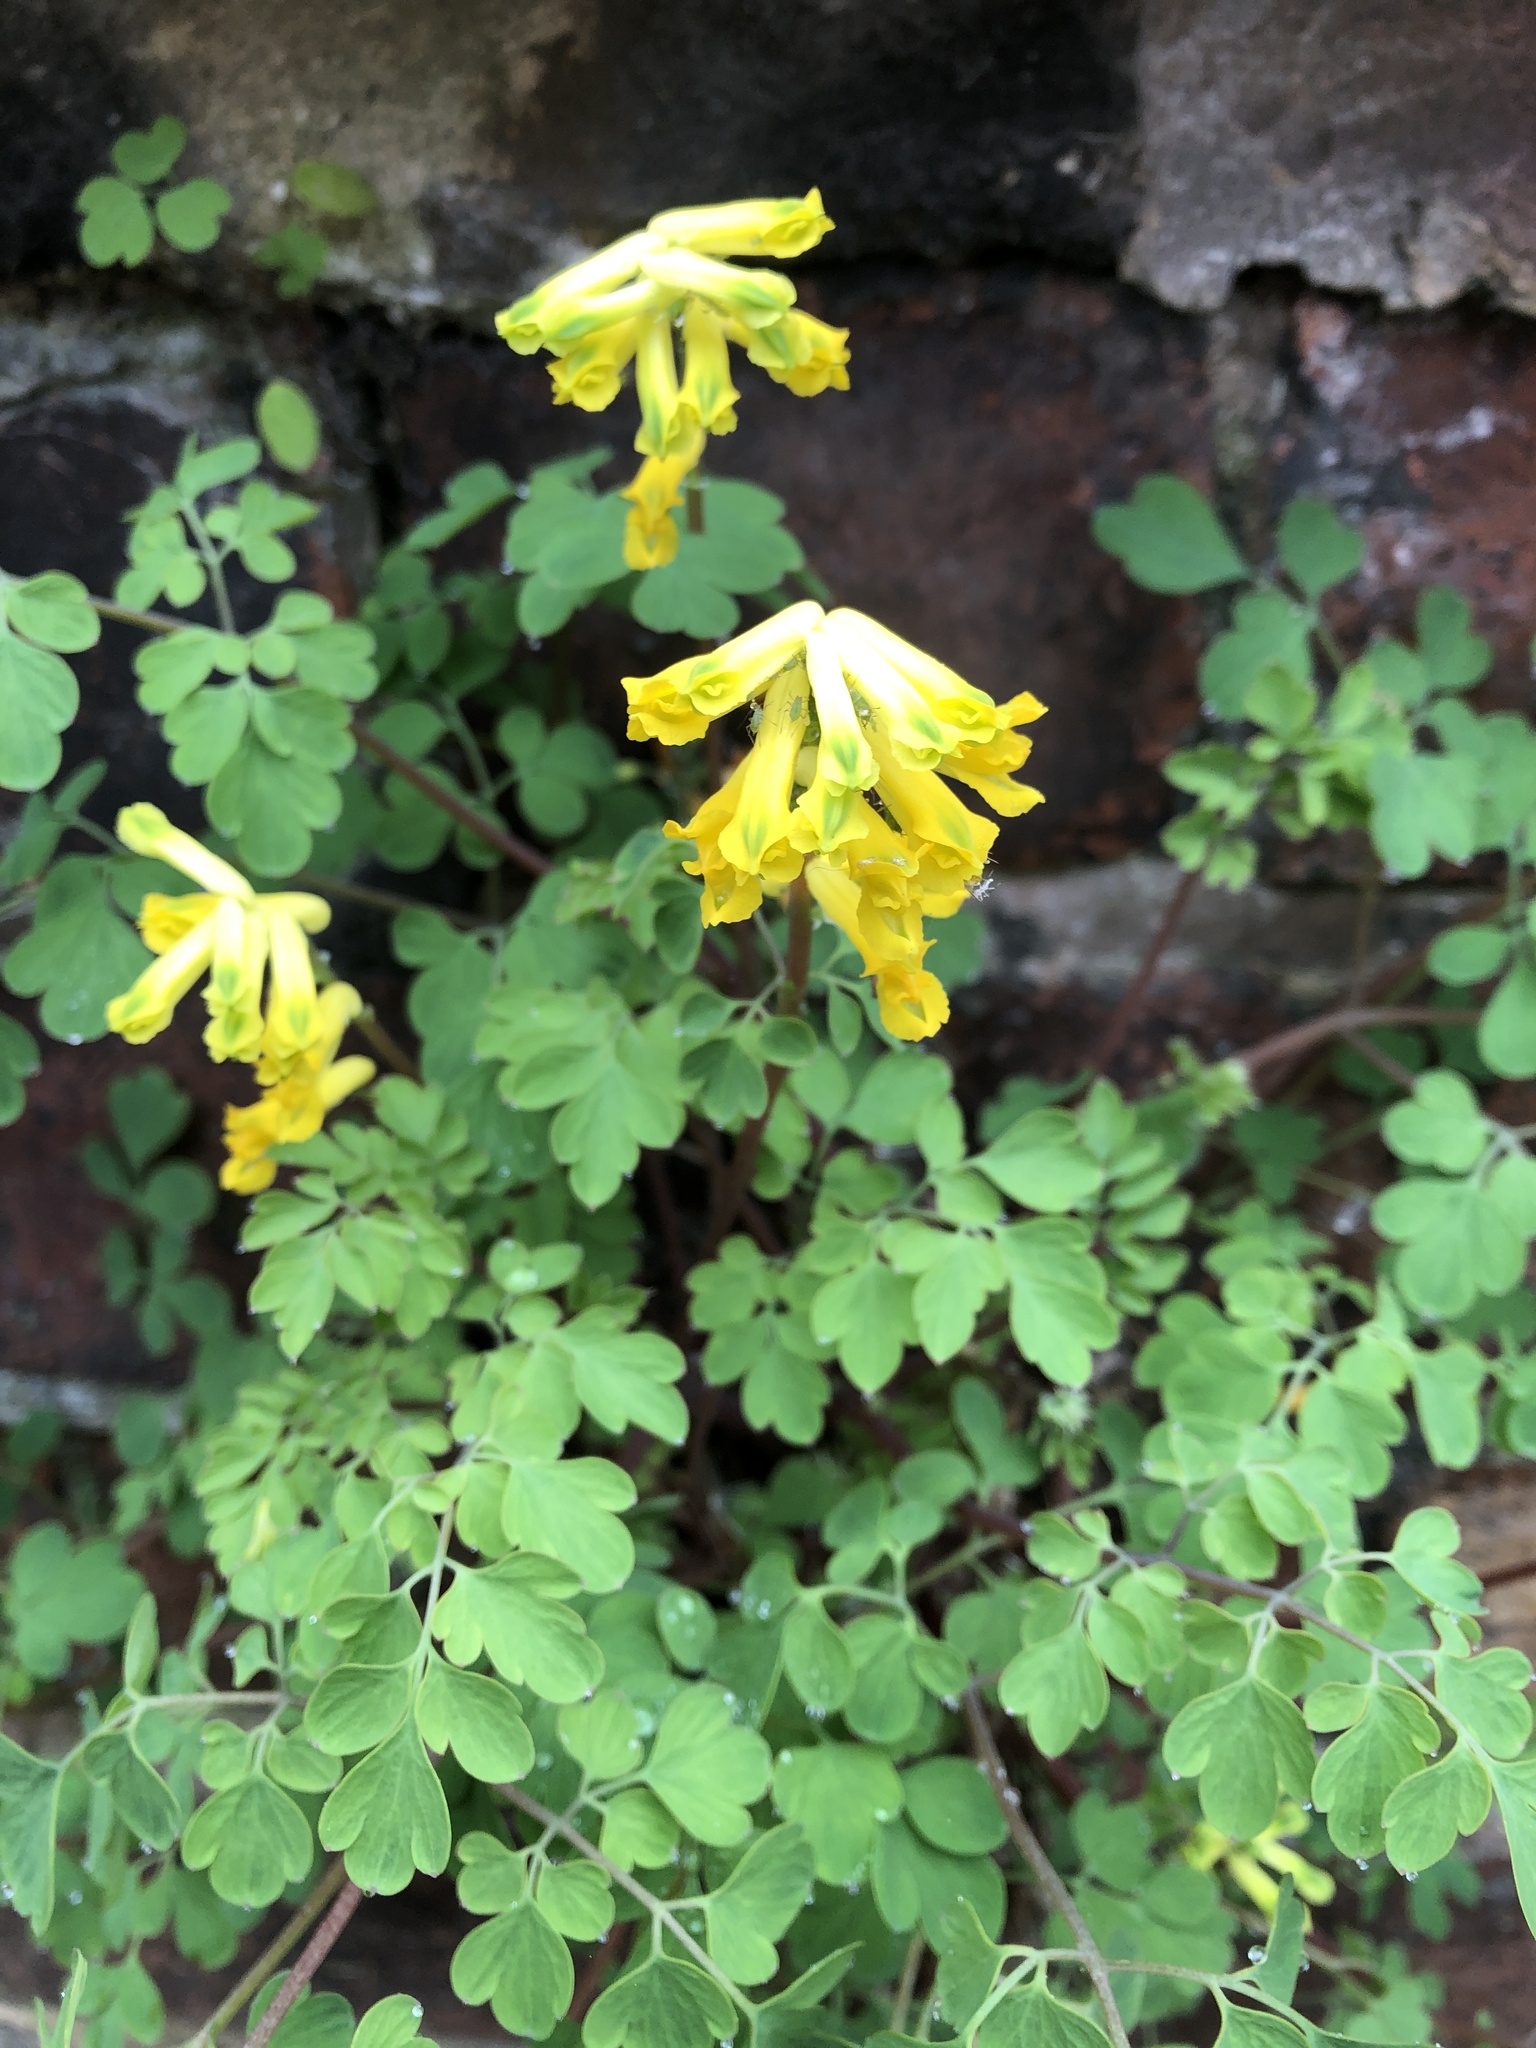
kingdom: Plantae
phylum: Tracheophyta
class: Magnoliopsida
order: Ranunculales
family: Papaveraceae
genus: Pseudofumaria
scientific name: Pseudofumaria lutea
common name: Yellow corydalis
